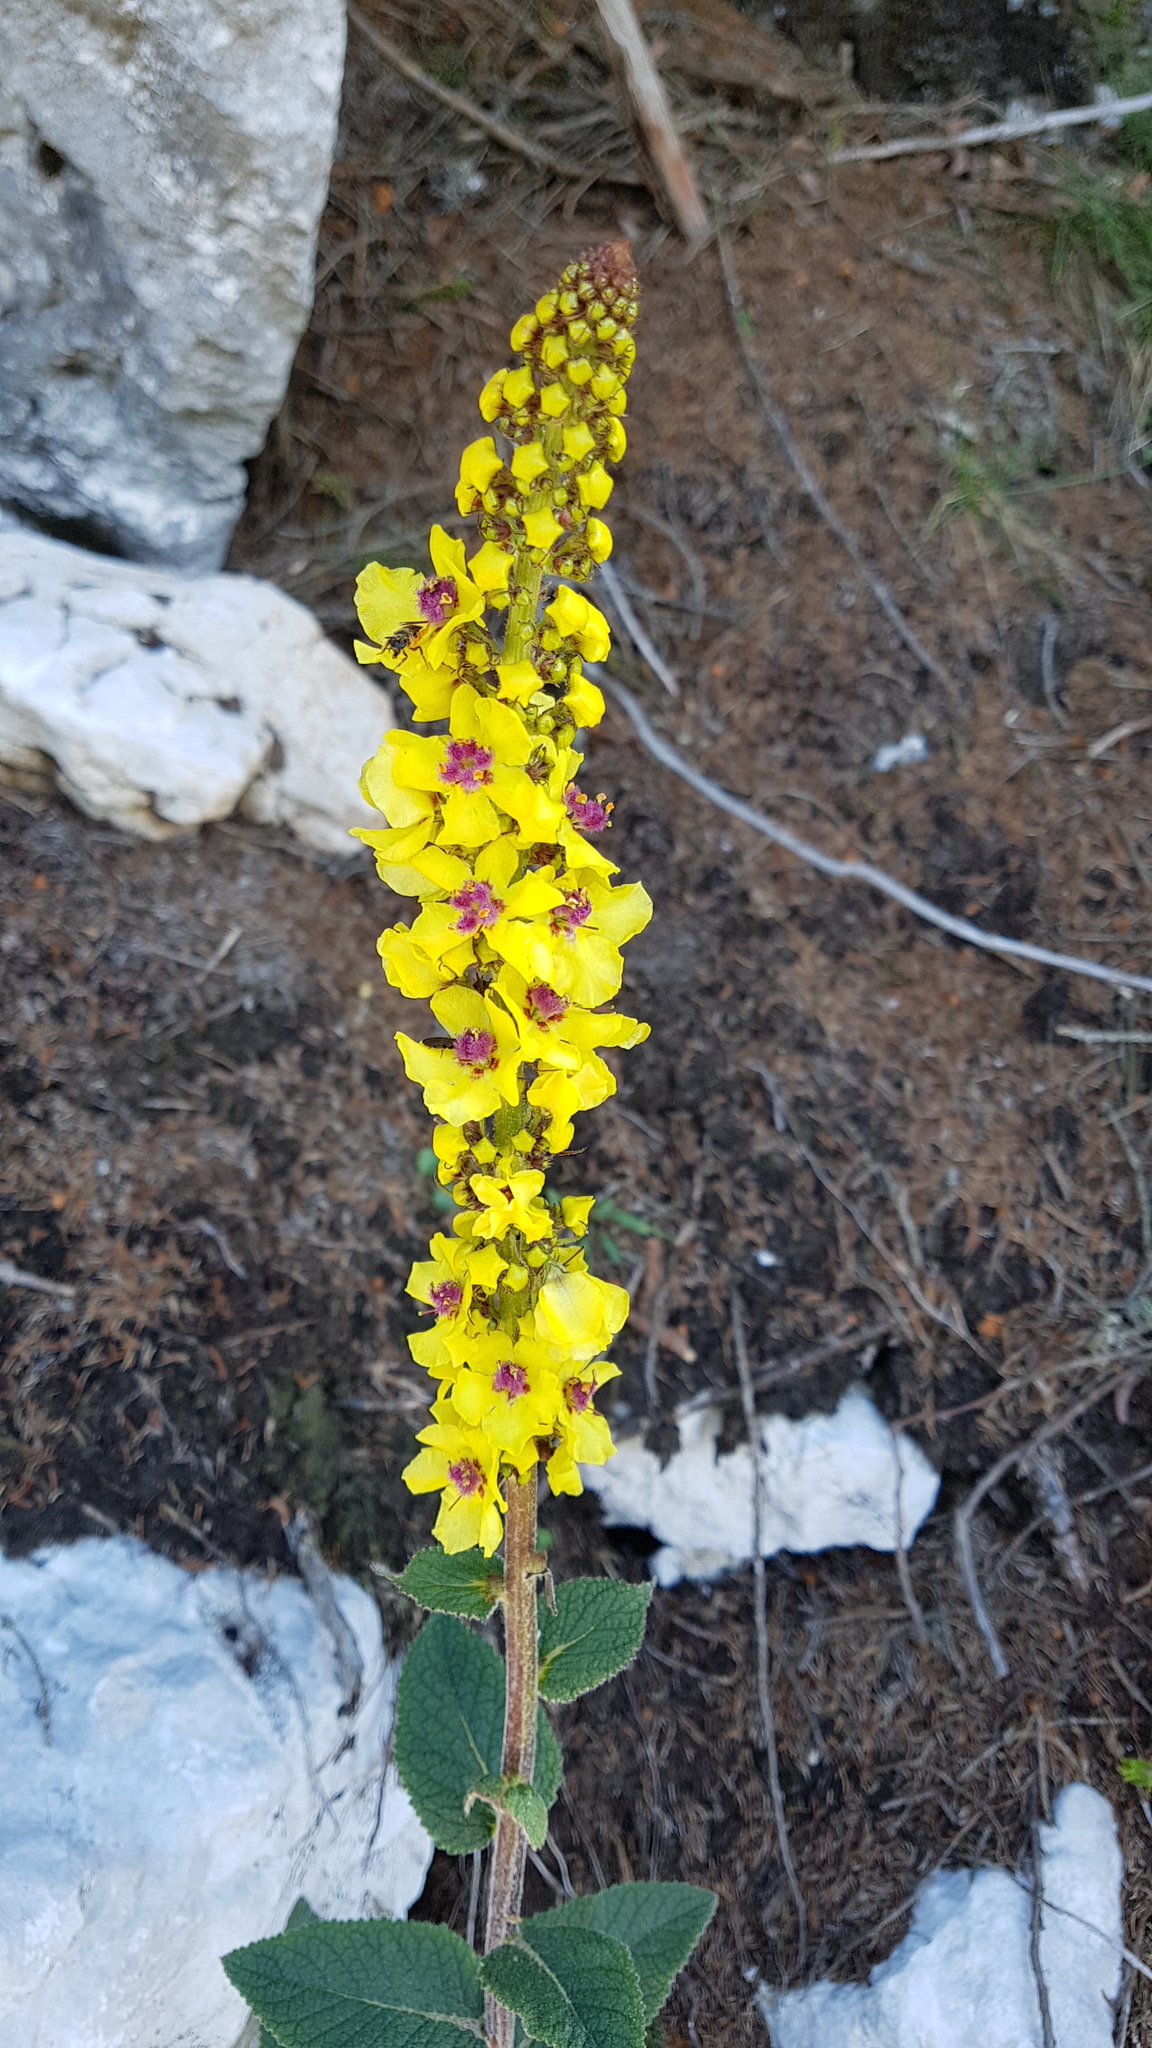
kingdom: Plantae
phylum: Tracheophyta
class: Magnoliopsida
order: Lamiales
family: Scrophulariaceae
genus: Verbascum
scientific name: Verbascum nigrum
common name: Dark mullein
